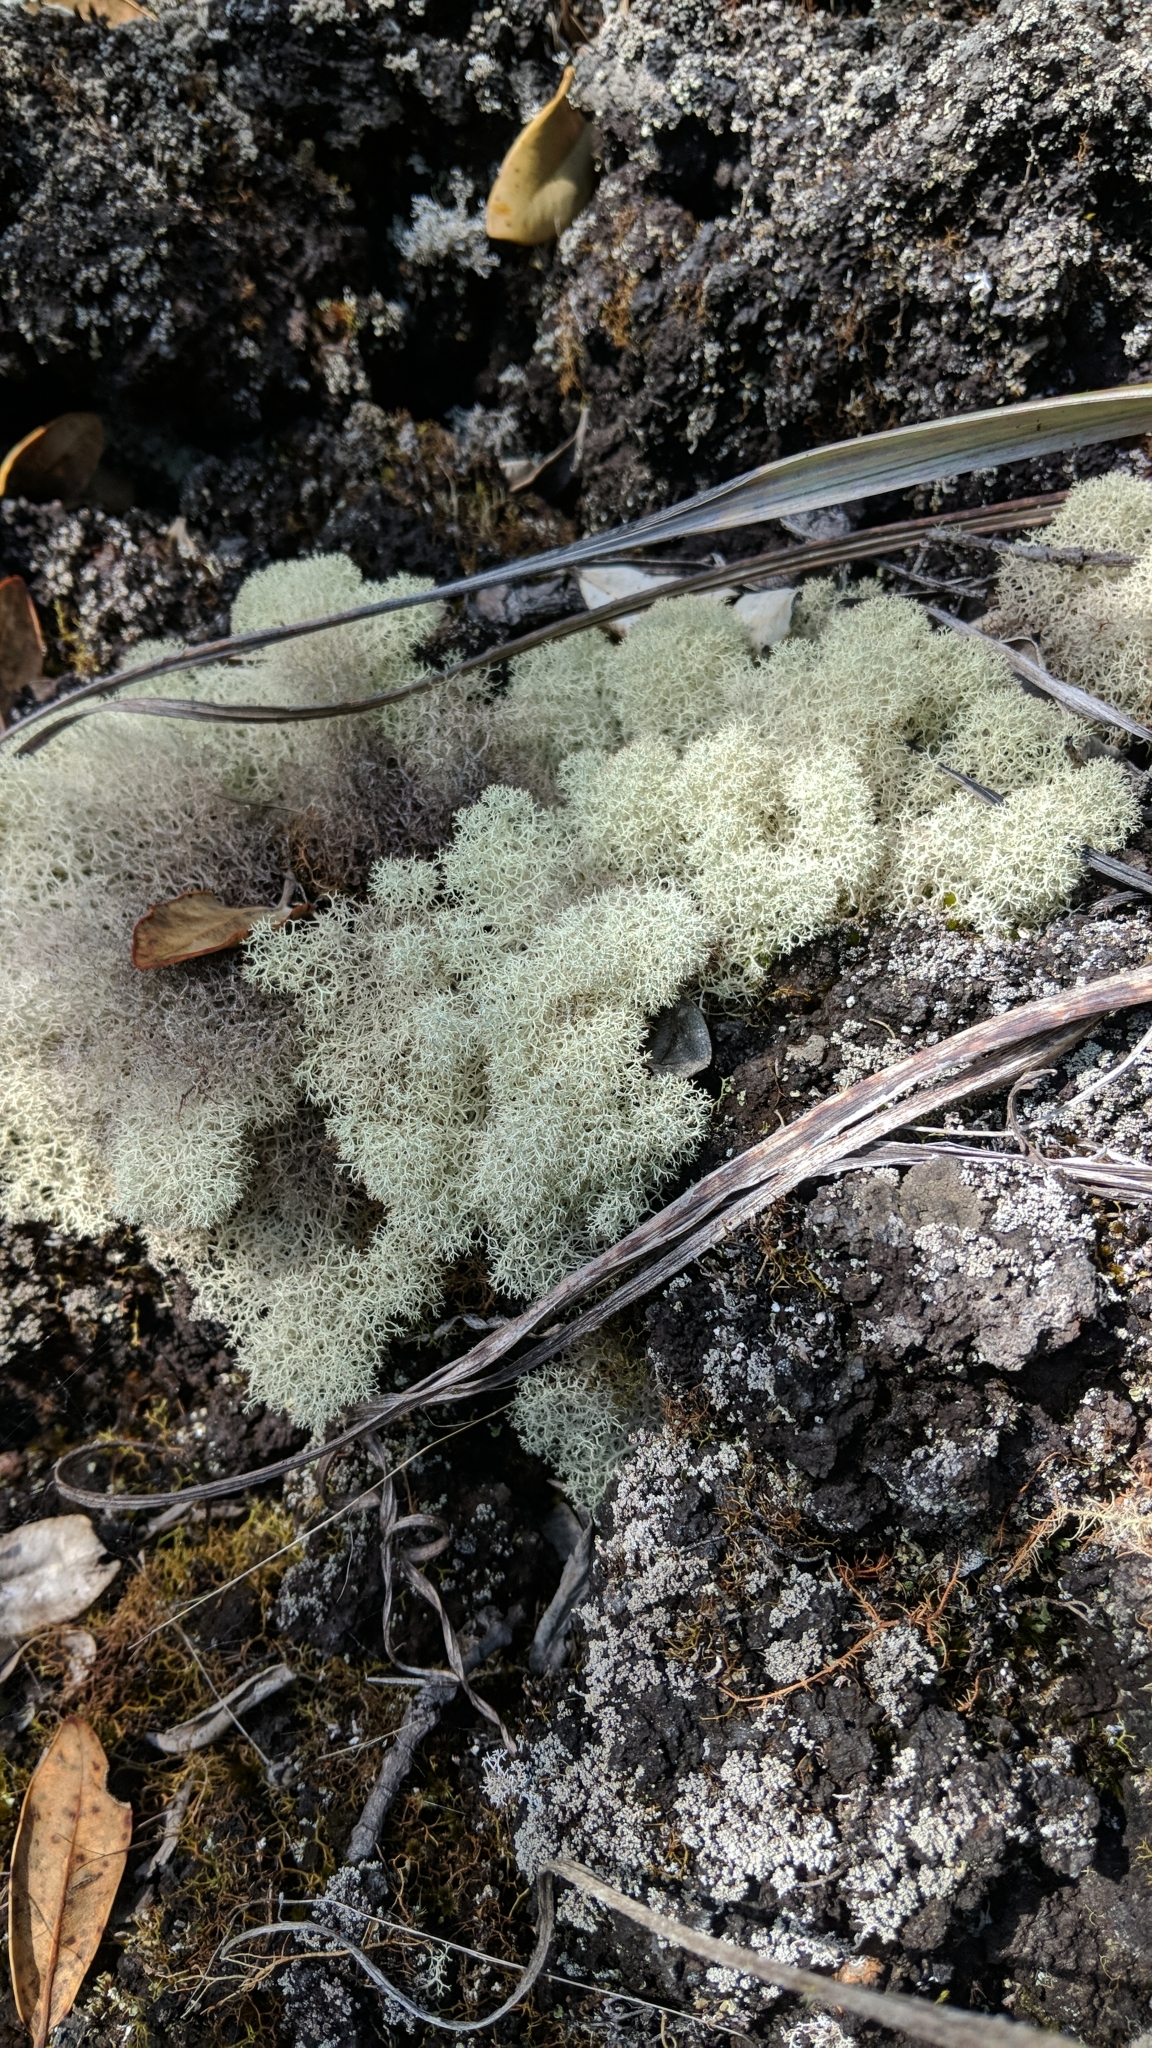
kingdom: Fungi
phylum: Ascomycota
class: Lecanoromycetes
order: Lecanorales
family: Cladoniaceae
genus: Cladonia
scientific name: Cladonia confusa
